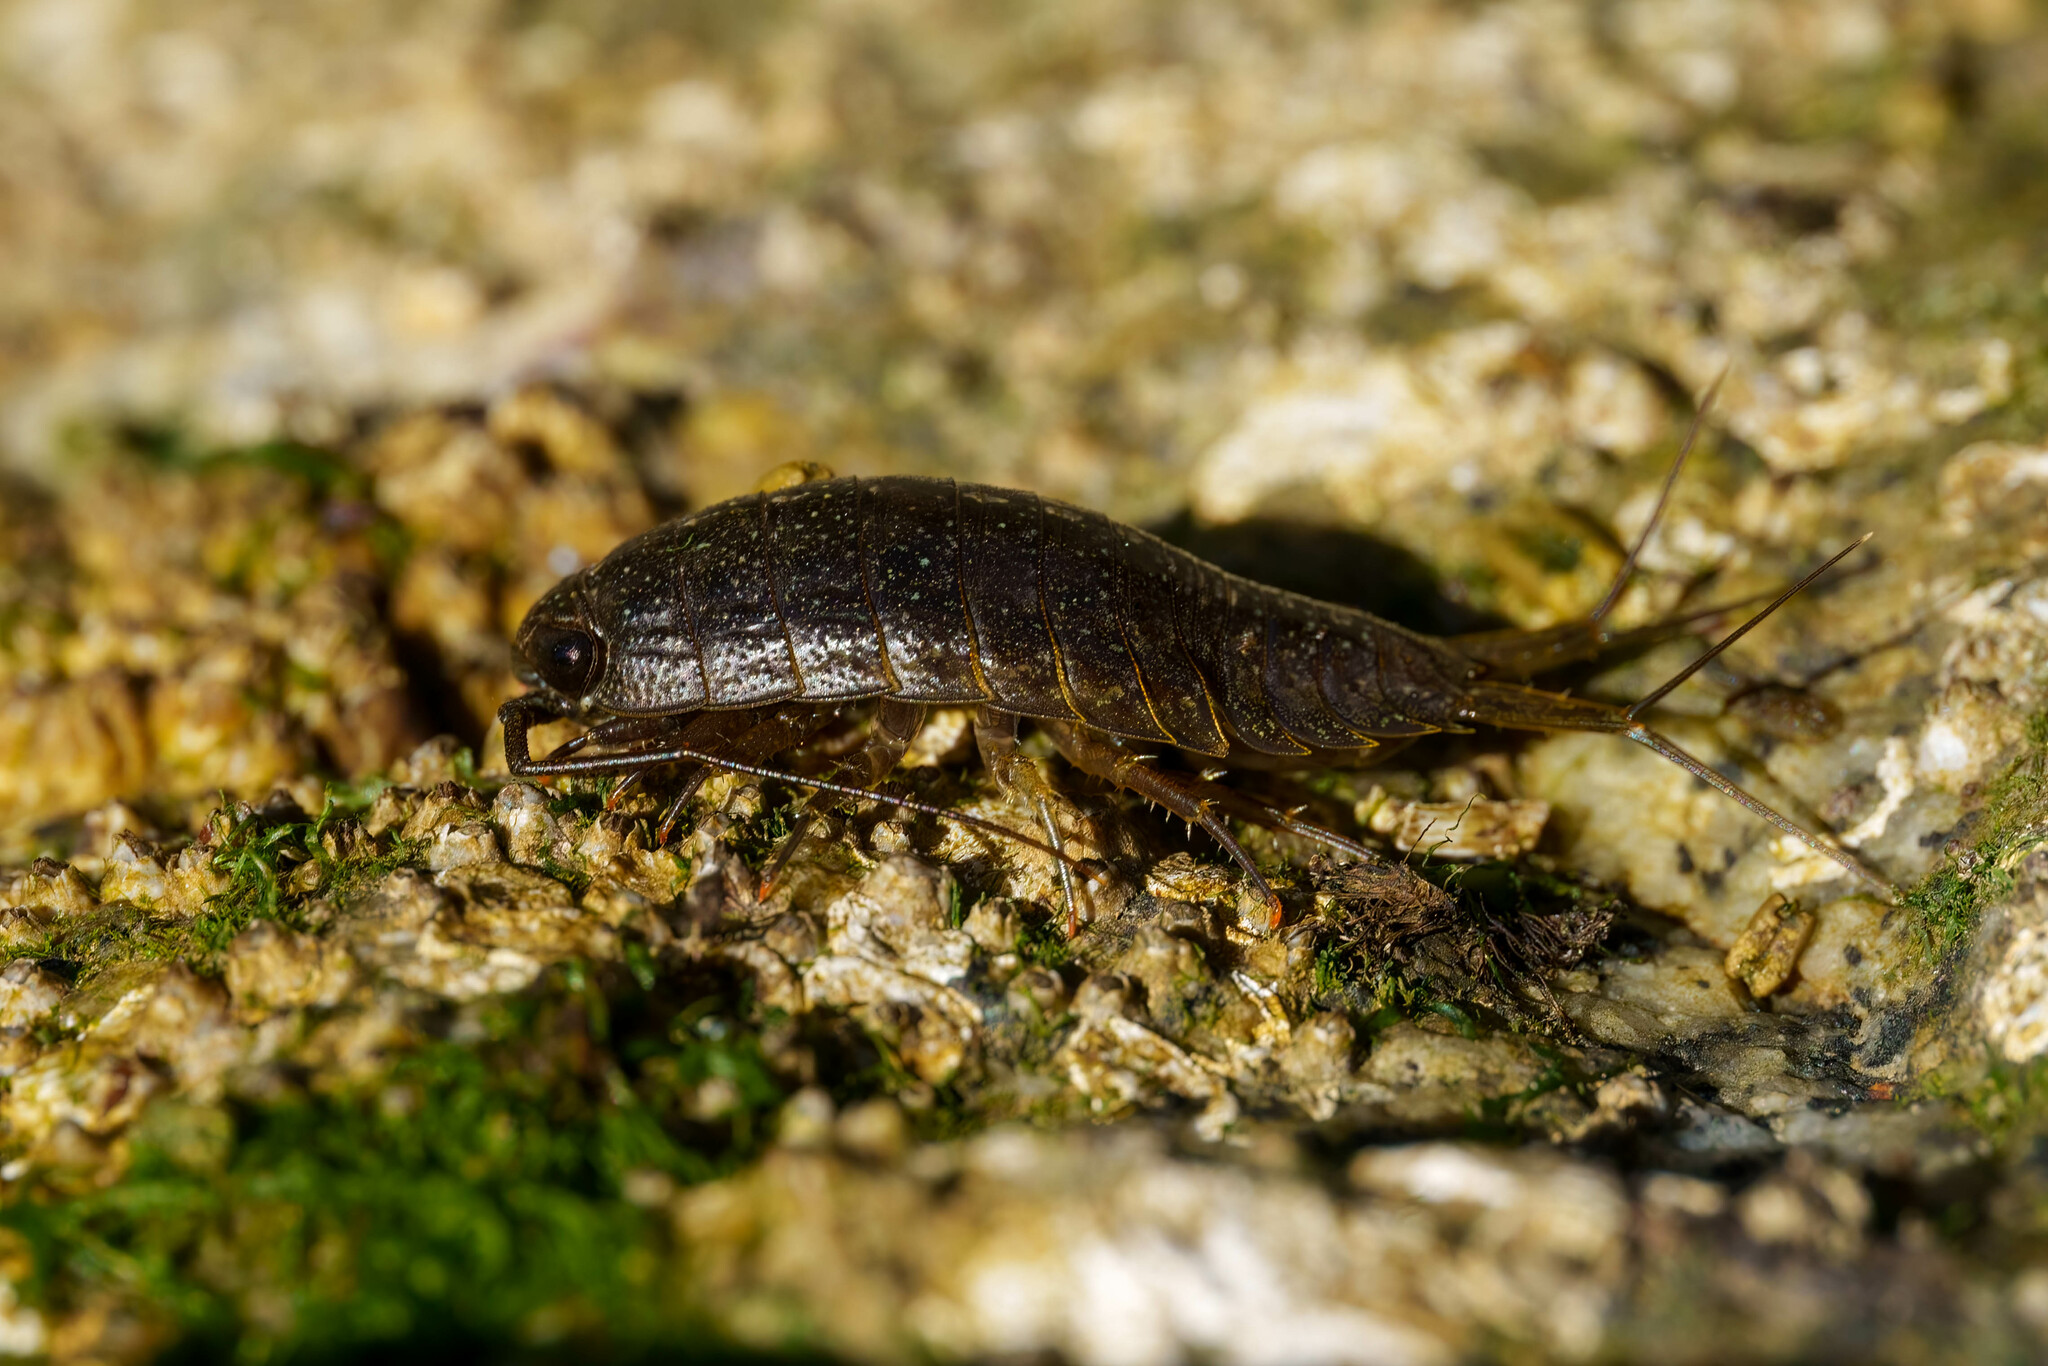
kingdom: Animalia
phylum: Arthropoda
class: Malacostraca
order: Isopoda
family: Ligiidae
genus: Ligia
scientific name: Ligia occidentalis
